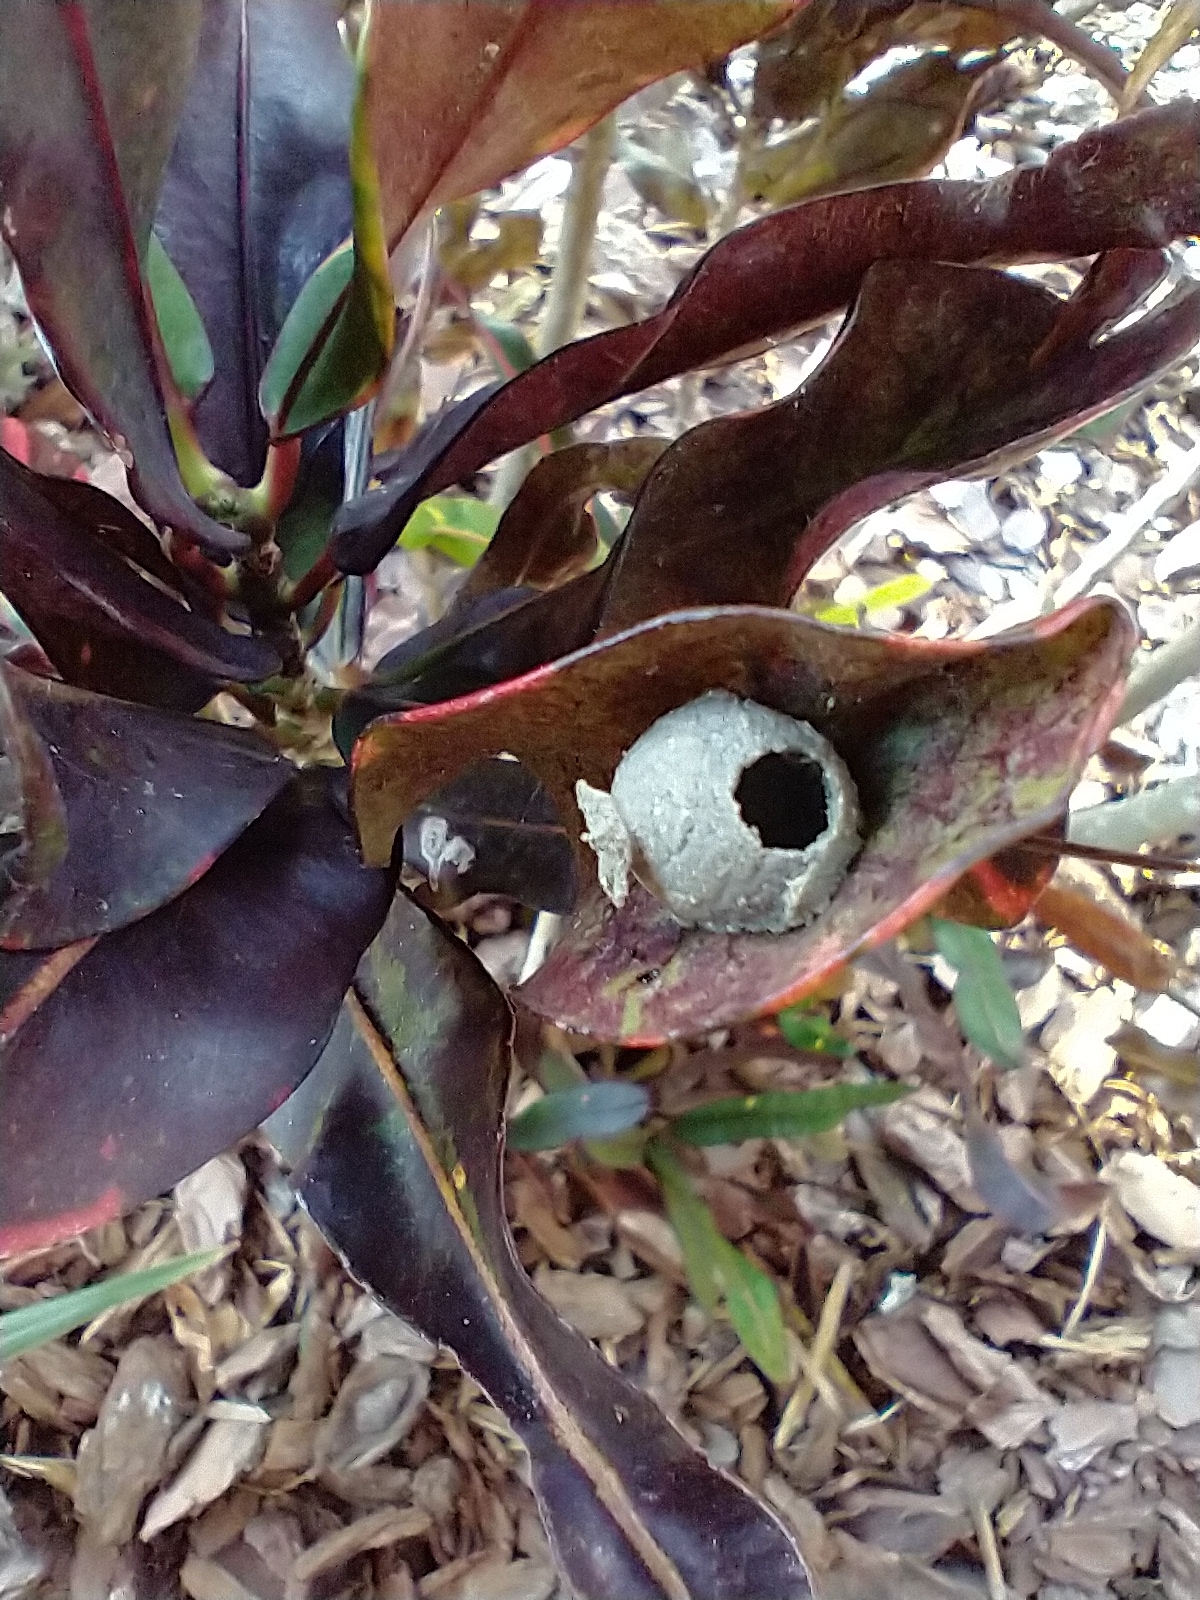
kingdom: Animalia
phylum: Arthropoda
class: Insecta
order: Hymenoptera
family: Eumenidae
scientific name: Eumenidae
